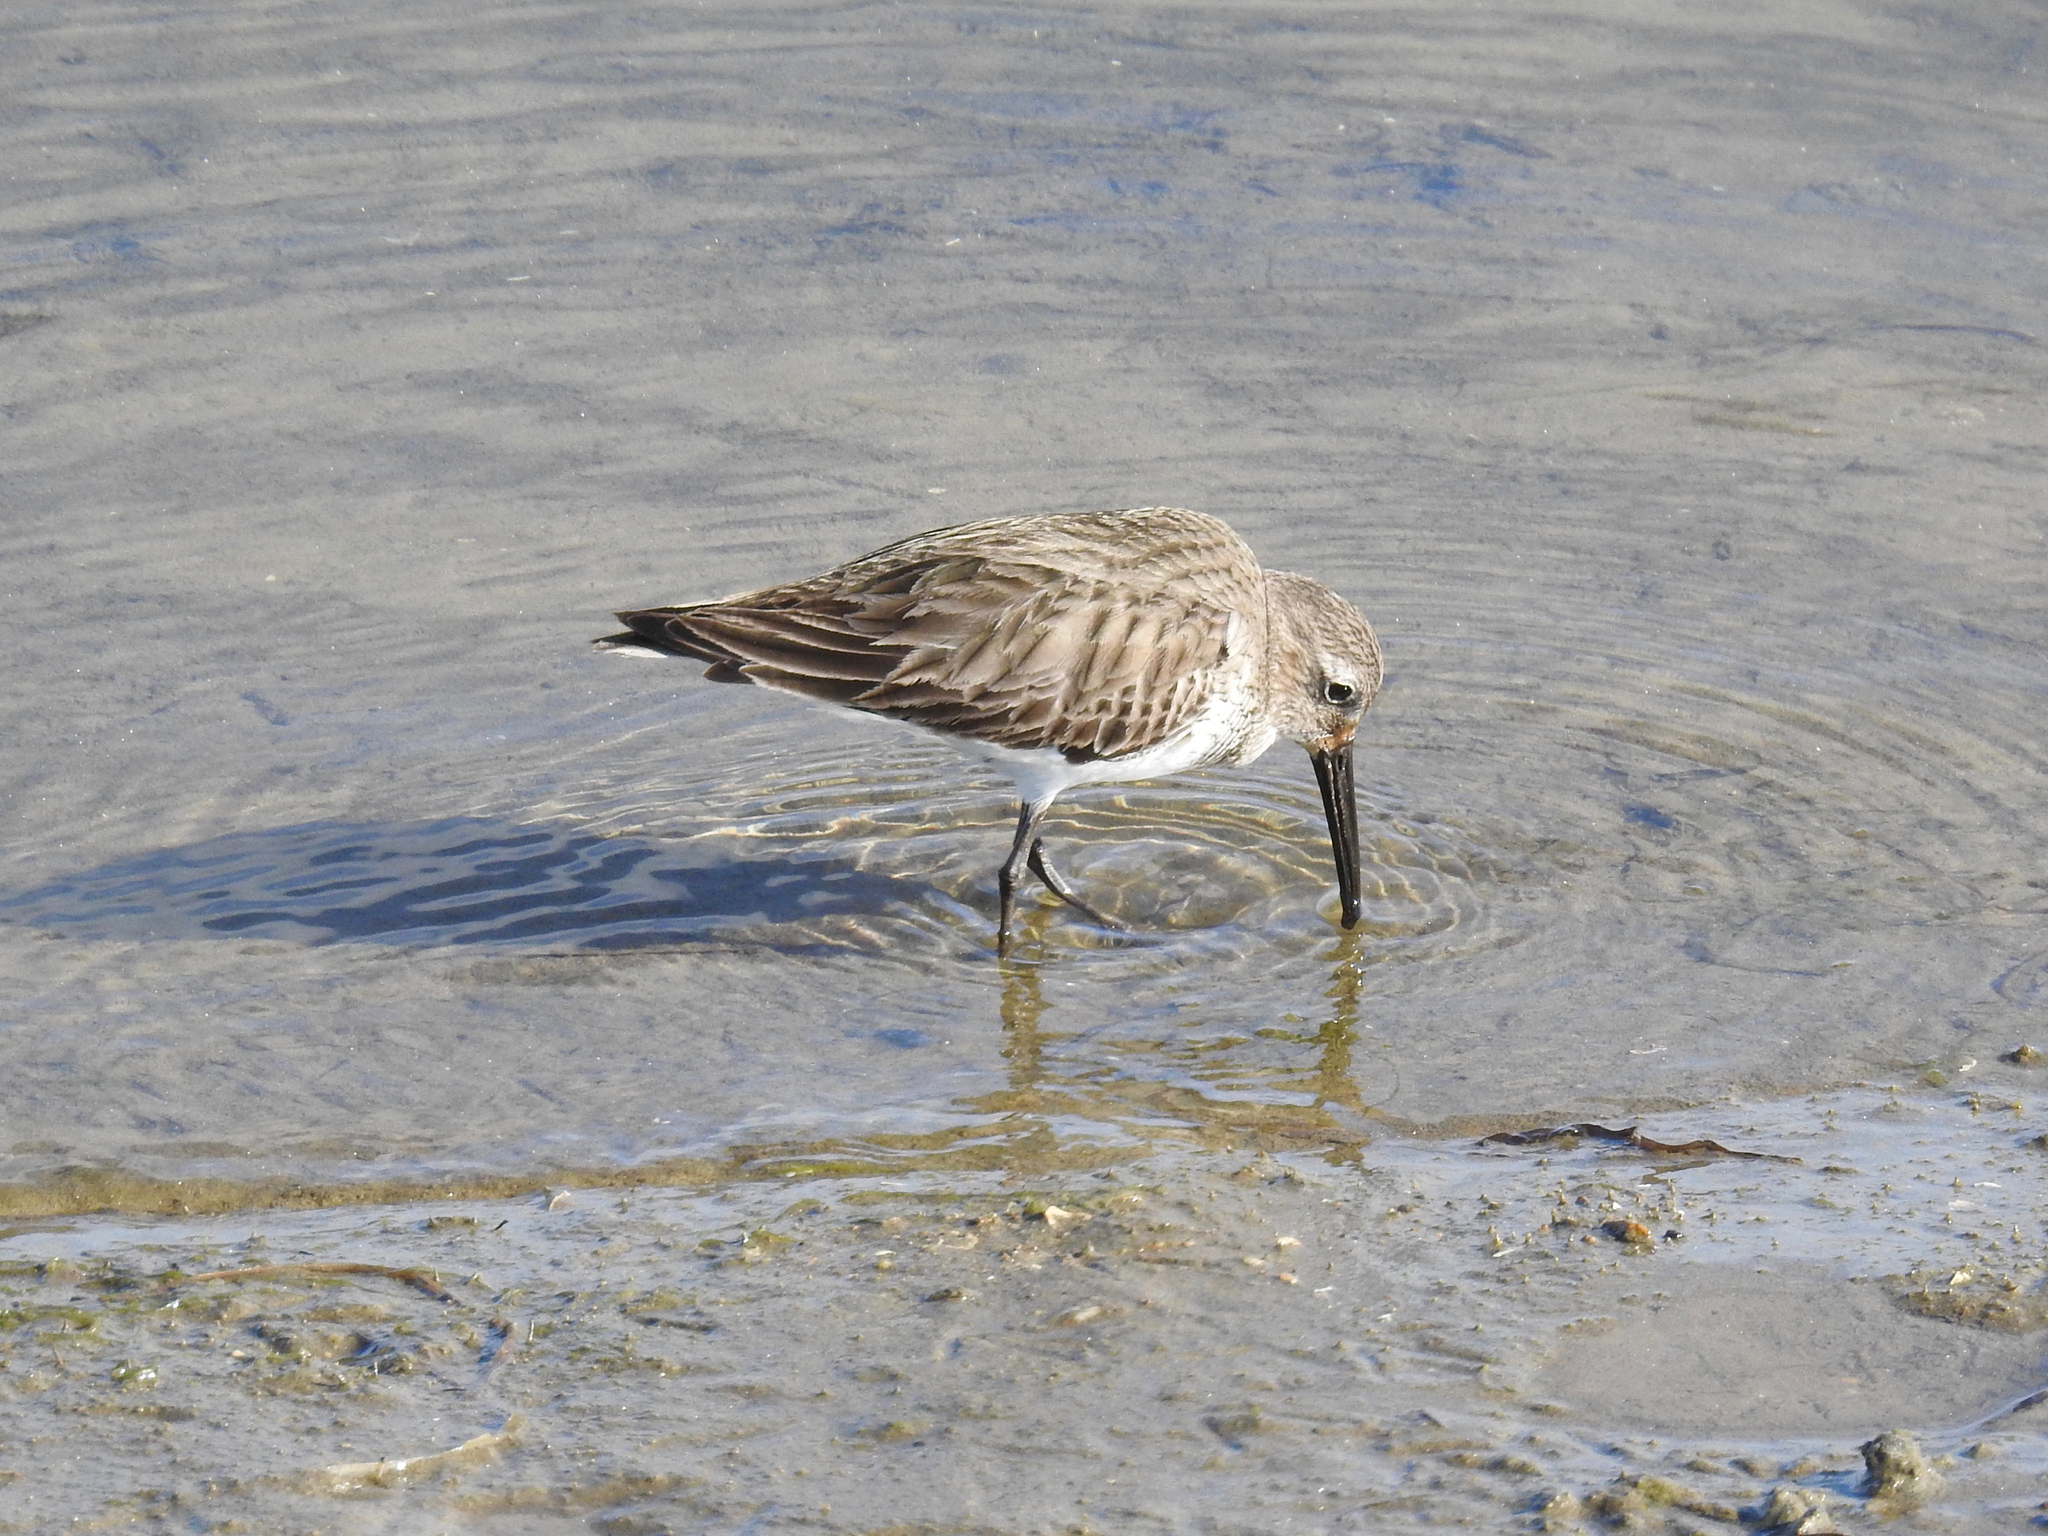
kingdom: Animalia
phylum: Chordata
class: Aves
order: Charadriiformes
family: Scolopacidae
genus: Calidris
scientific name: Calidris alpina
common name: Dunlin
